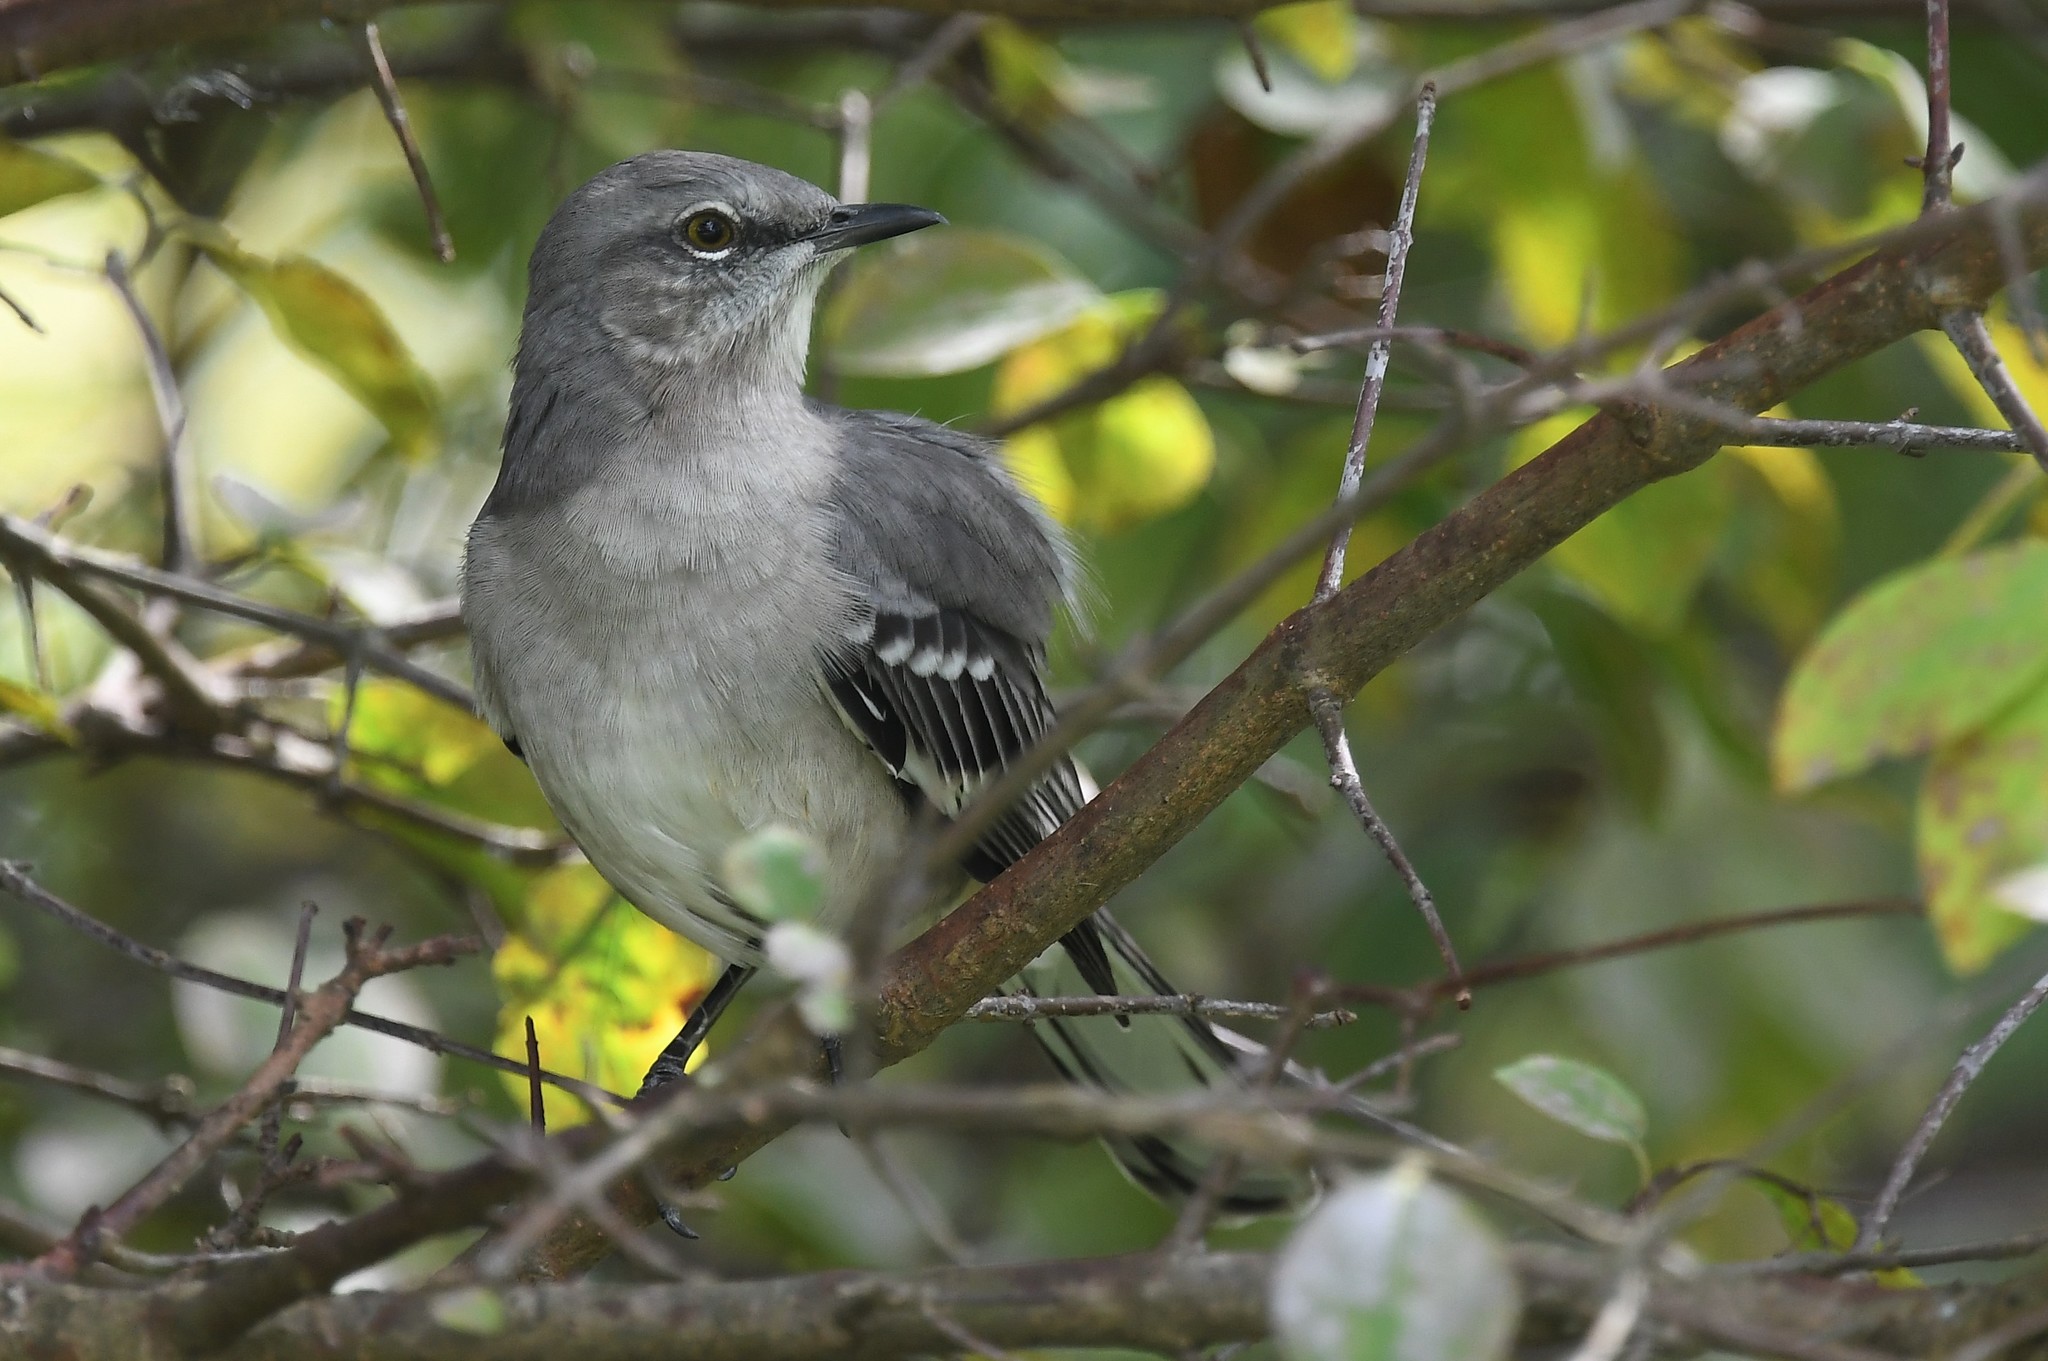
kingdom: Animalia
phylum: Chordata
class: Aves
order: Passeriformes
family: Mimidae
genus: Mimus
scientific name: Mimus polyglottos
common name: Northern mockingbird
